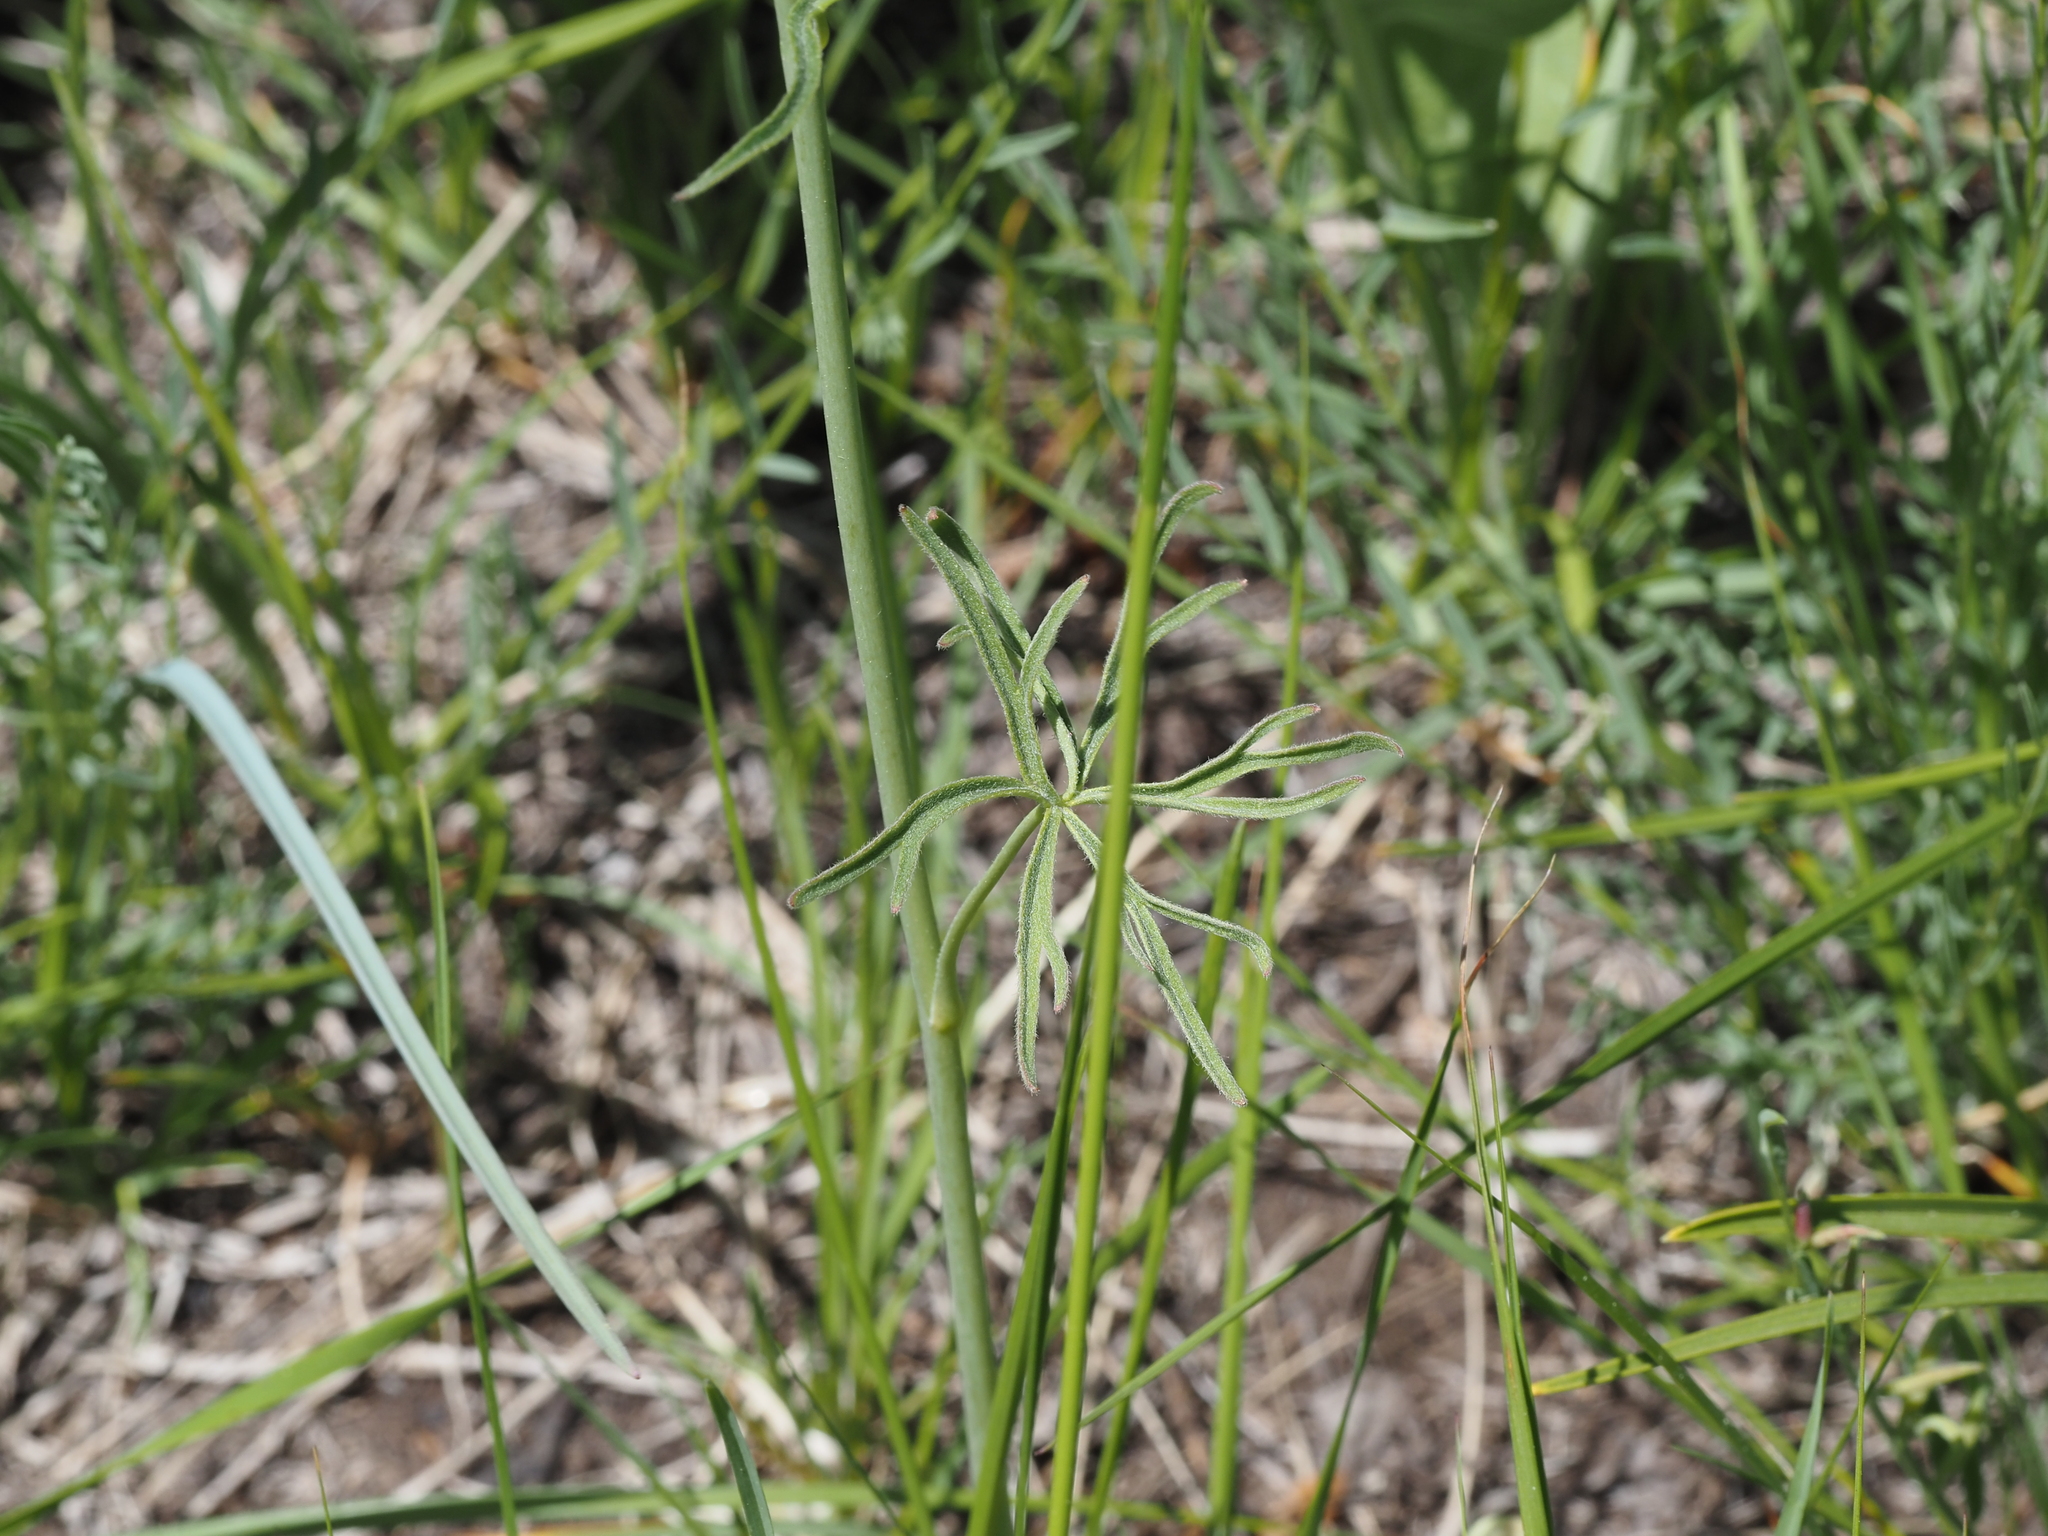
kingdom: Plantae
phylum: Tracheophyta
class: Magnoliopsida
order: Ranunculales
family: Ranunculaceae
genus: Delphinium
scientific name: Delphinium nuttallianum
